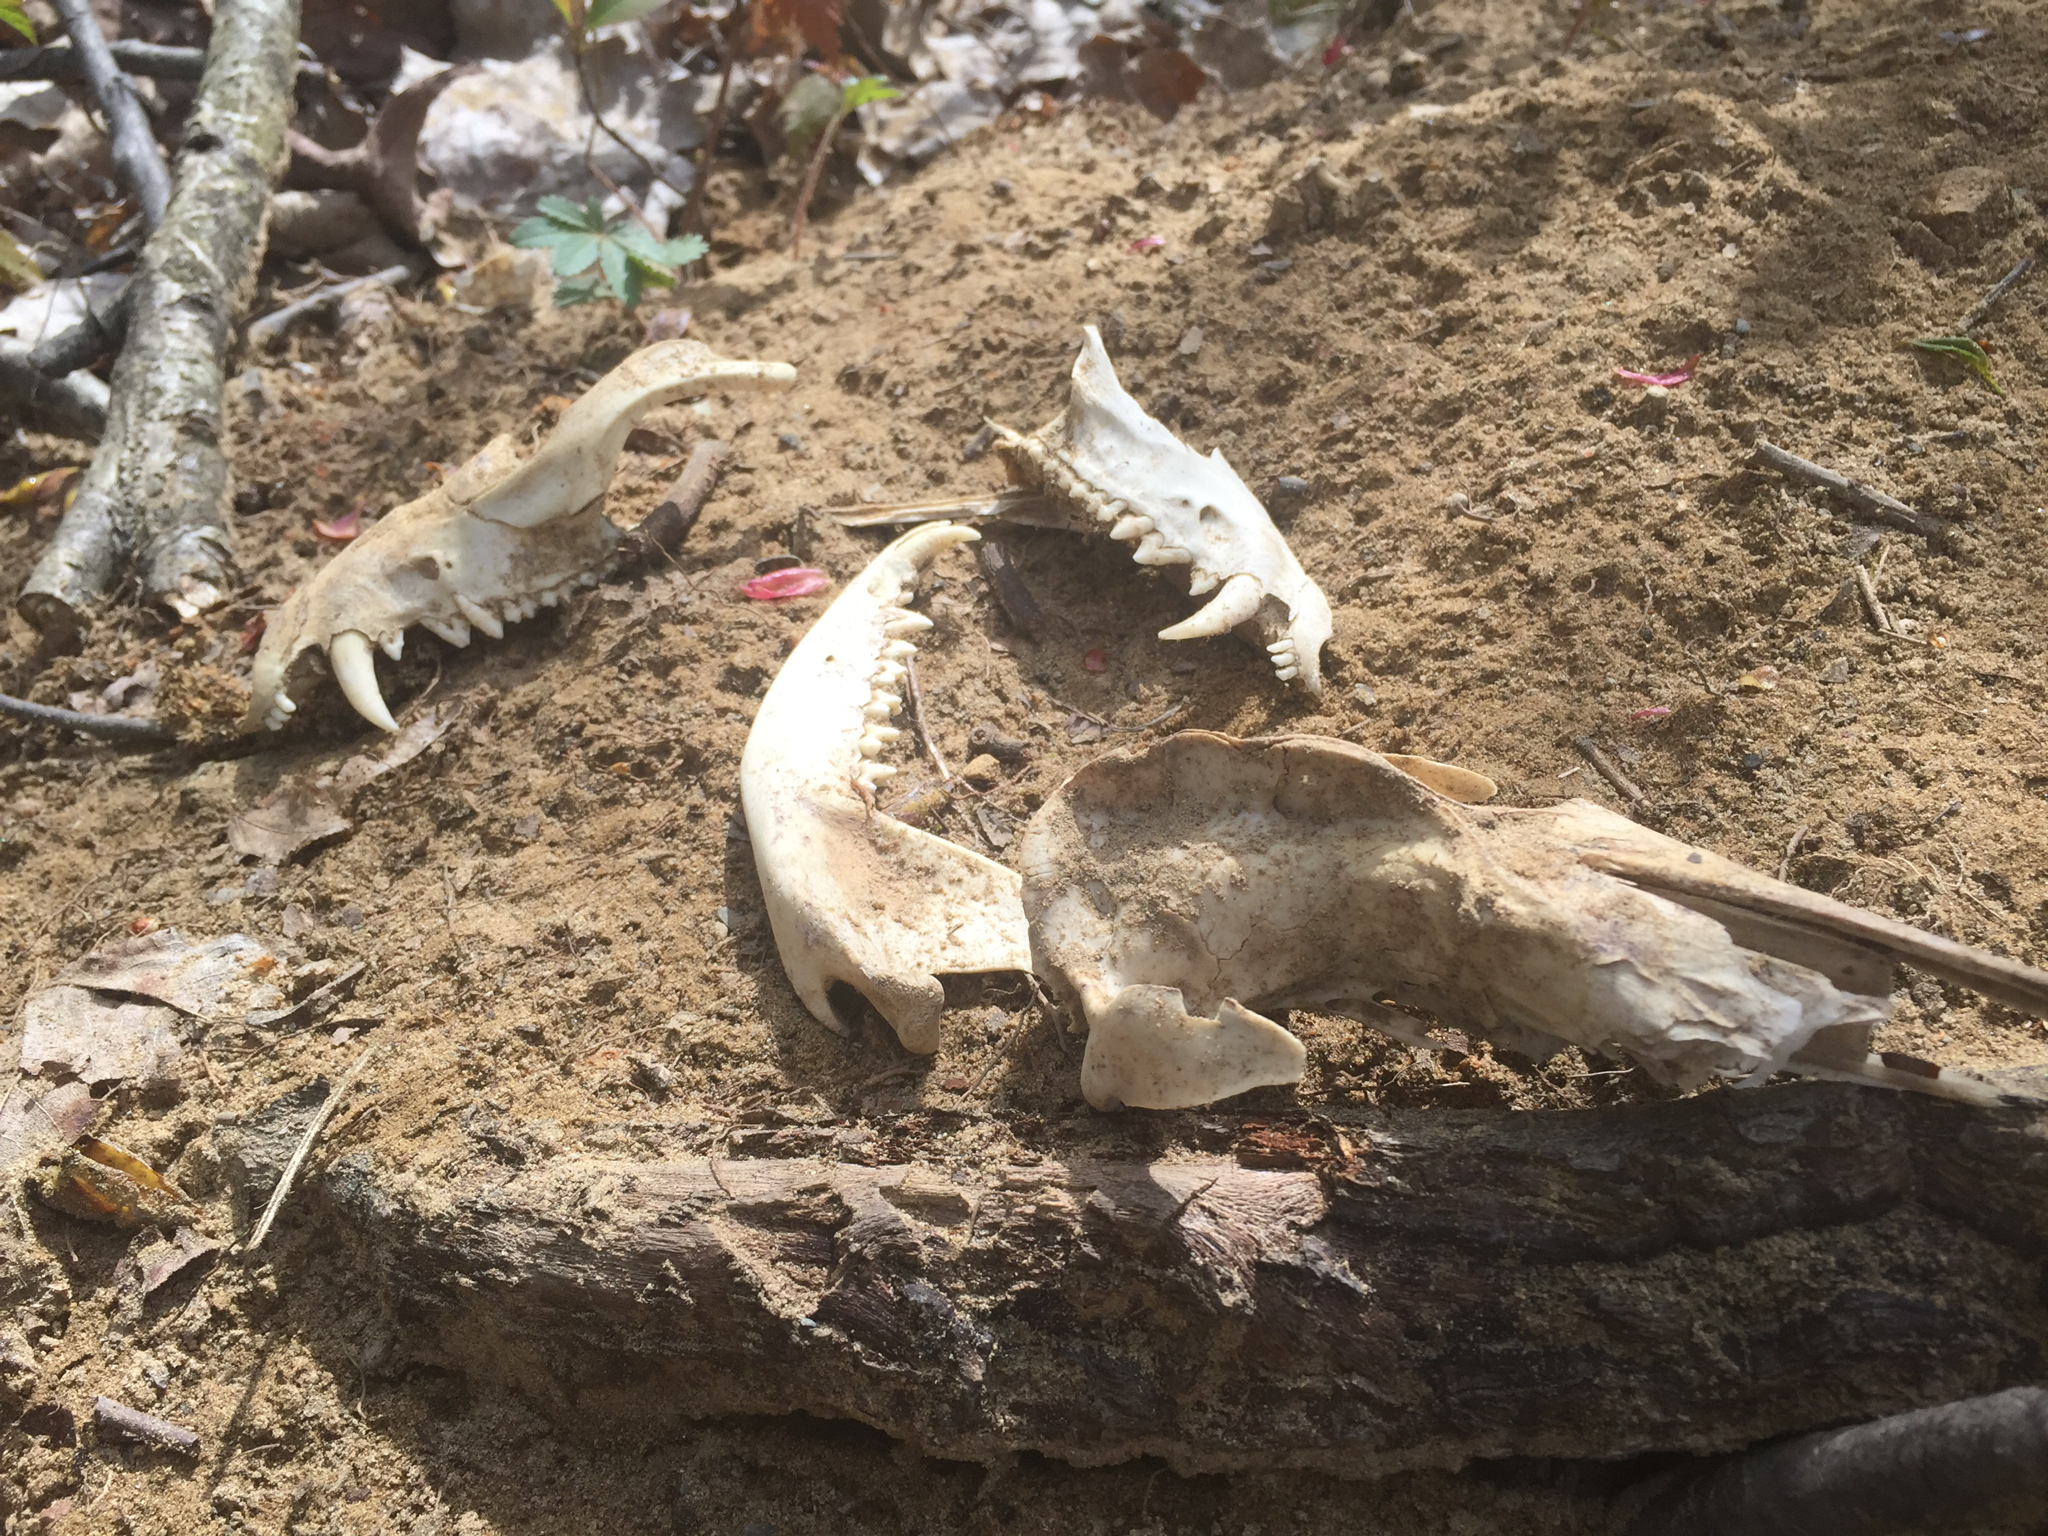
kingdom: Animalia
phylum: Chordata
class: Mammalia
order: Didelphimorphia
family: Didelphidae
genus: Didelphis
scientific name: Didelphis virginiana
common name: Virginia opossum
